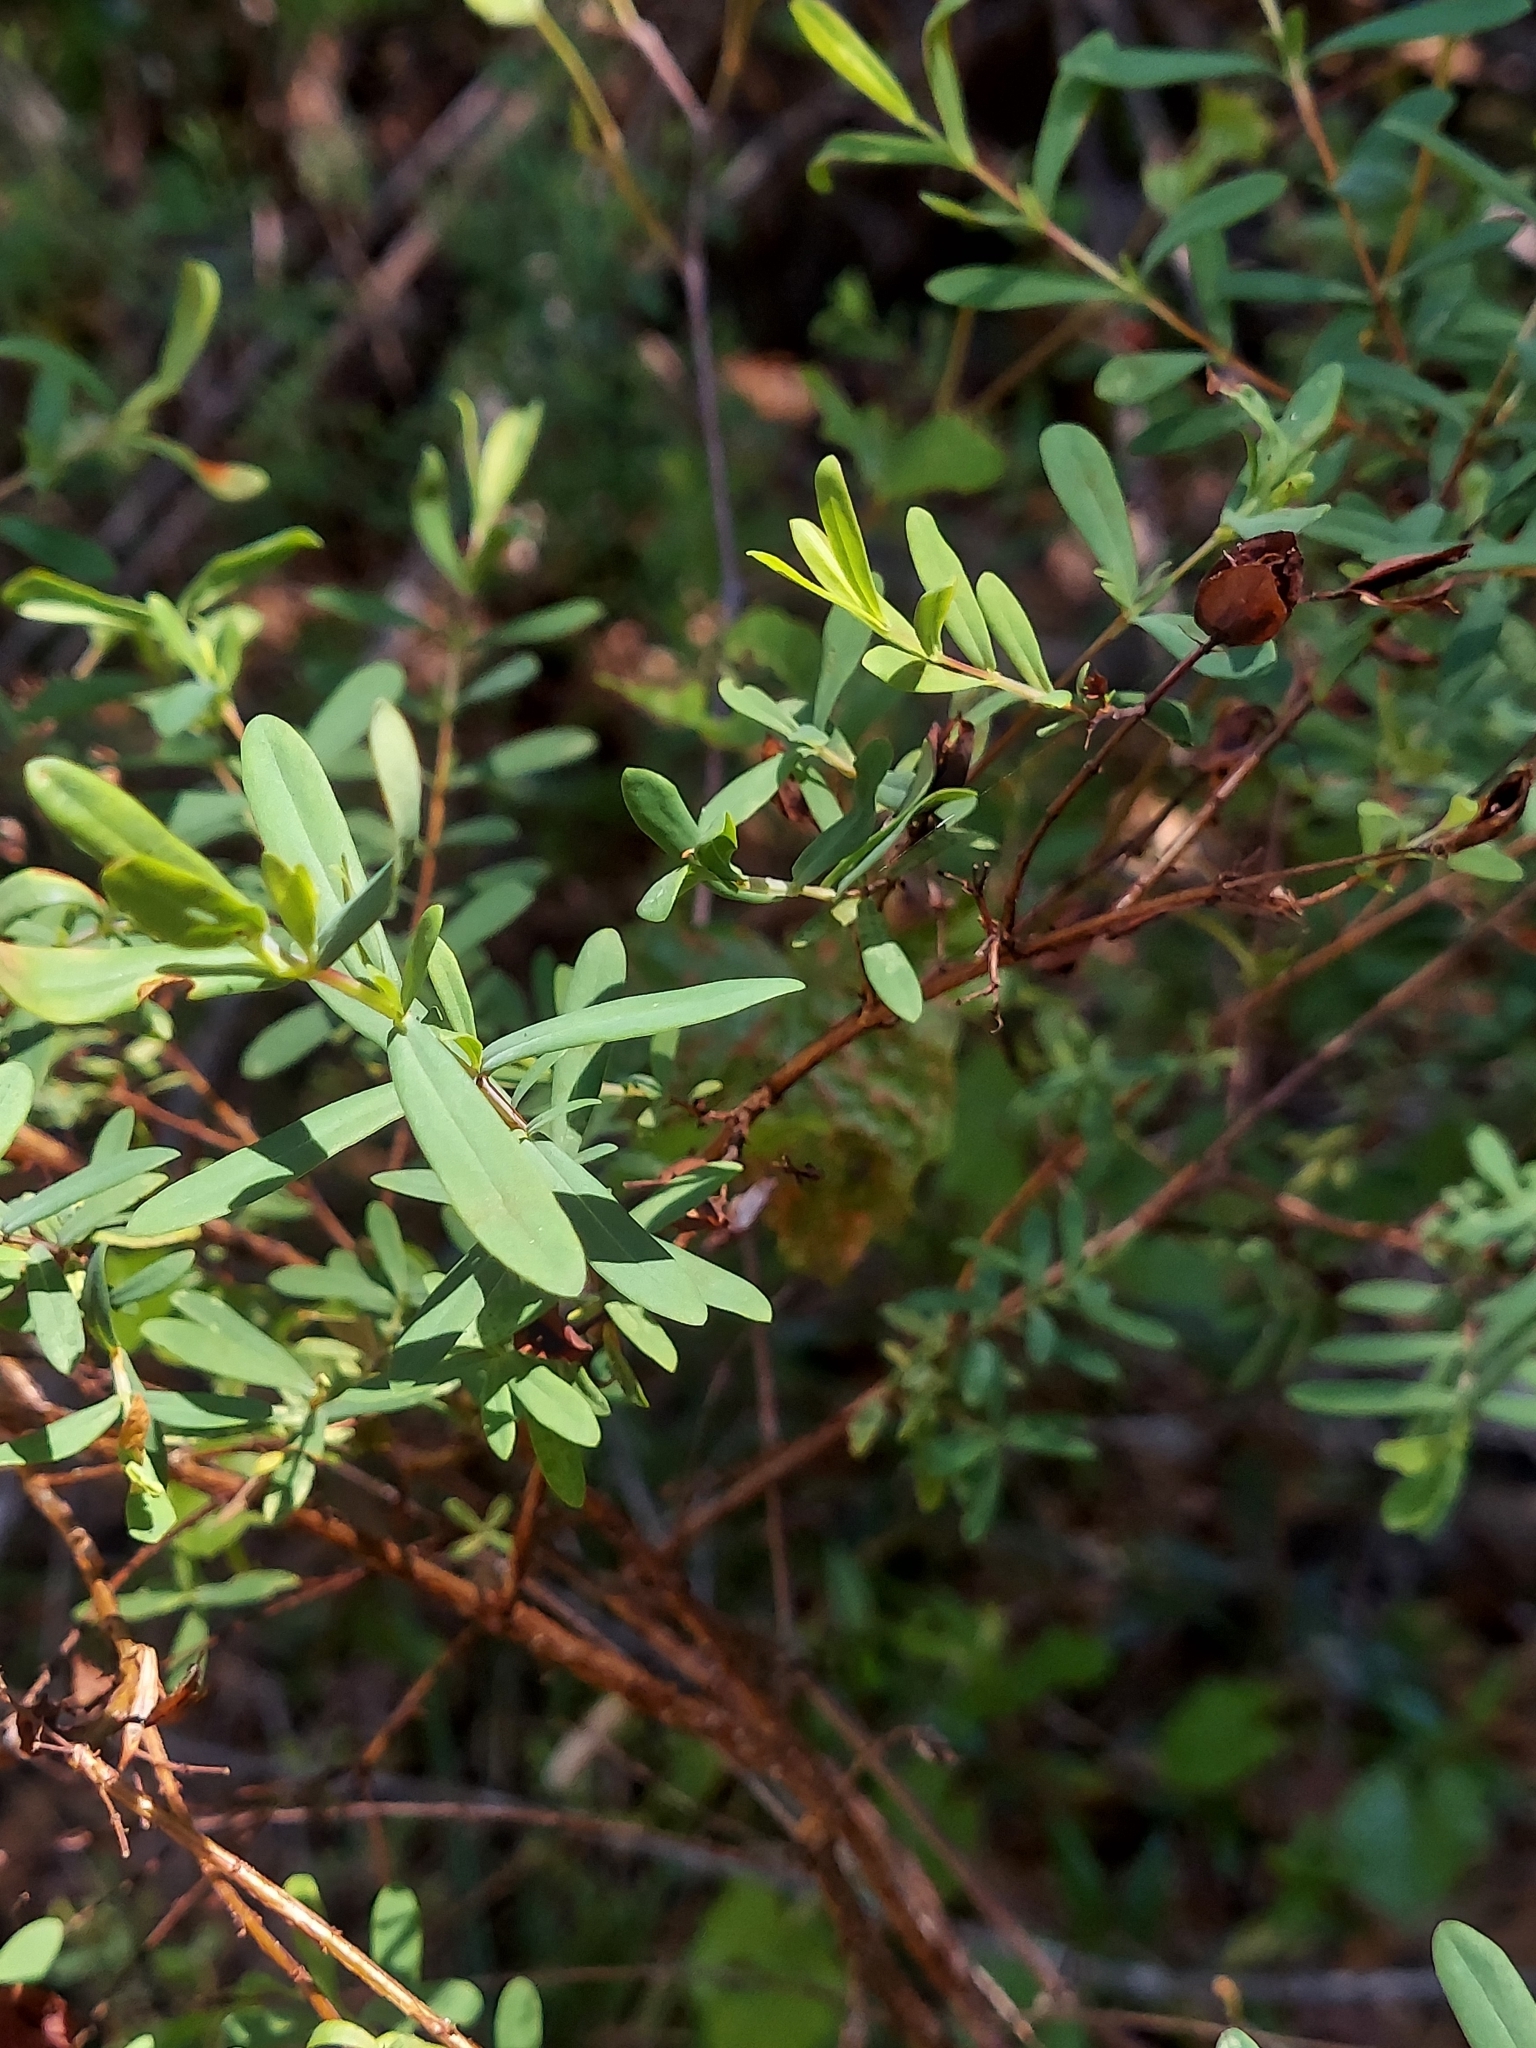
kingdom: Plantae
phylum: Tracheophyta
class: Magnoliopsida
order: Malpighiales
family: Hypericaceae
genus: Hypericum
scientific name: Hypericum hypericoides
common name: St. andrew's cross
